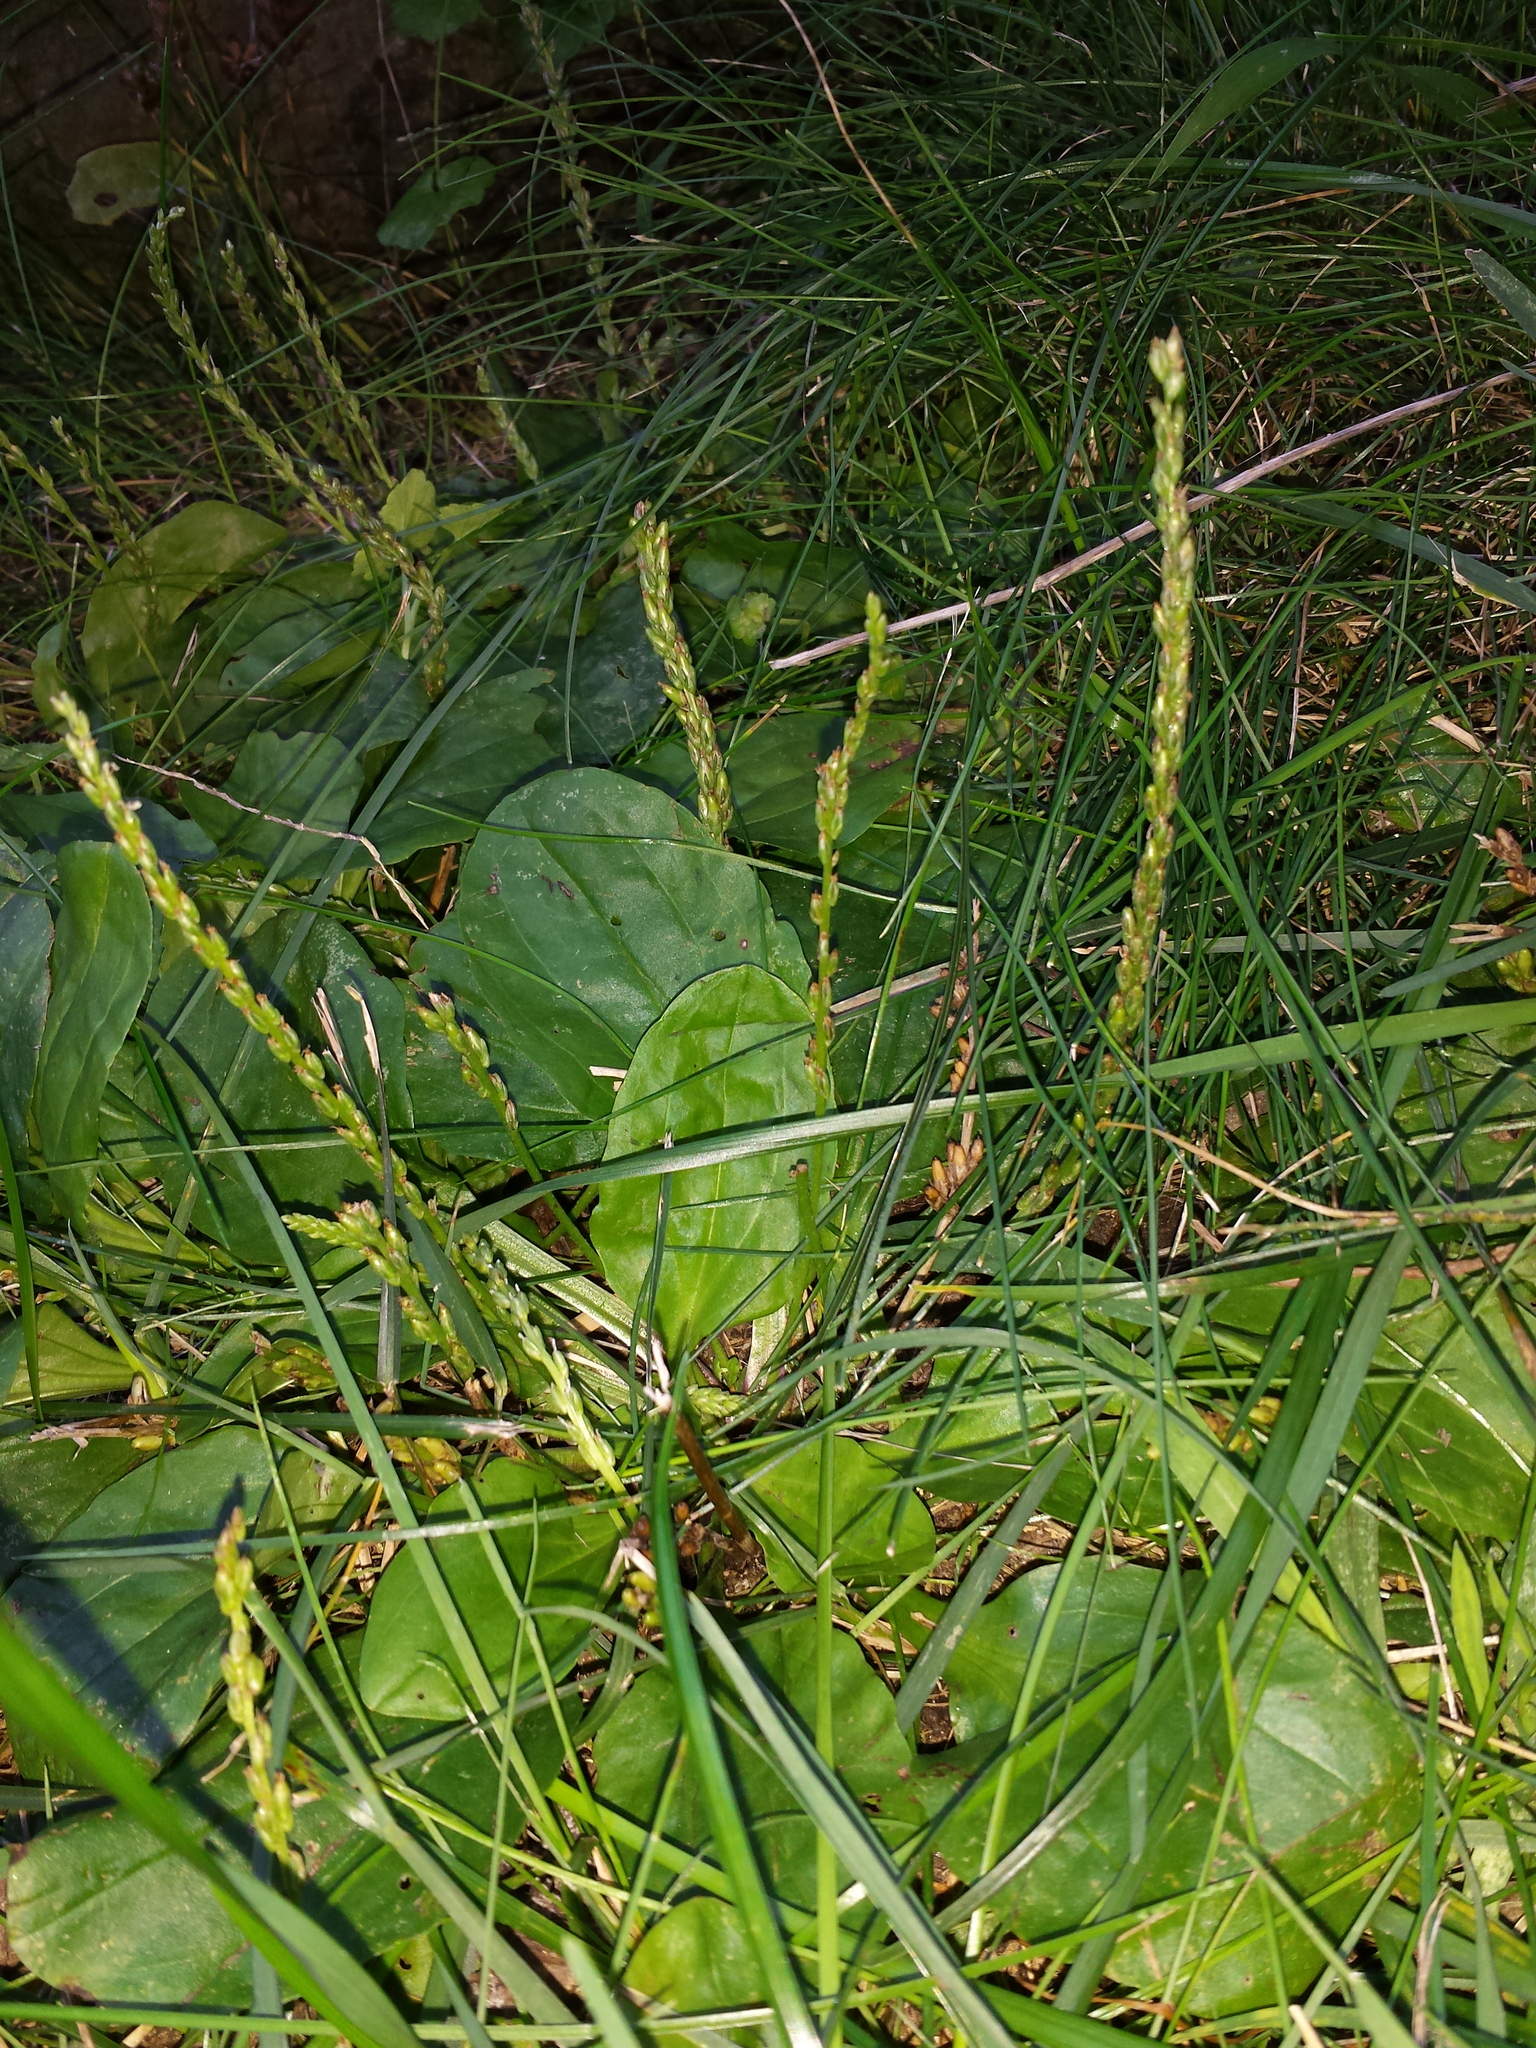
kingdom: Plantae
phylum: Tracheophyta
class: Magnoliopsida
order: Lamiales
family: Plantaginaceae
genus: Plantago
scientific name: Plantago major
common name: Common plantain
